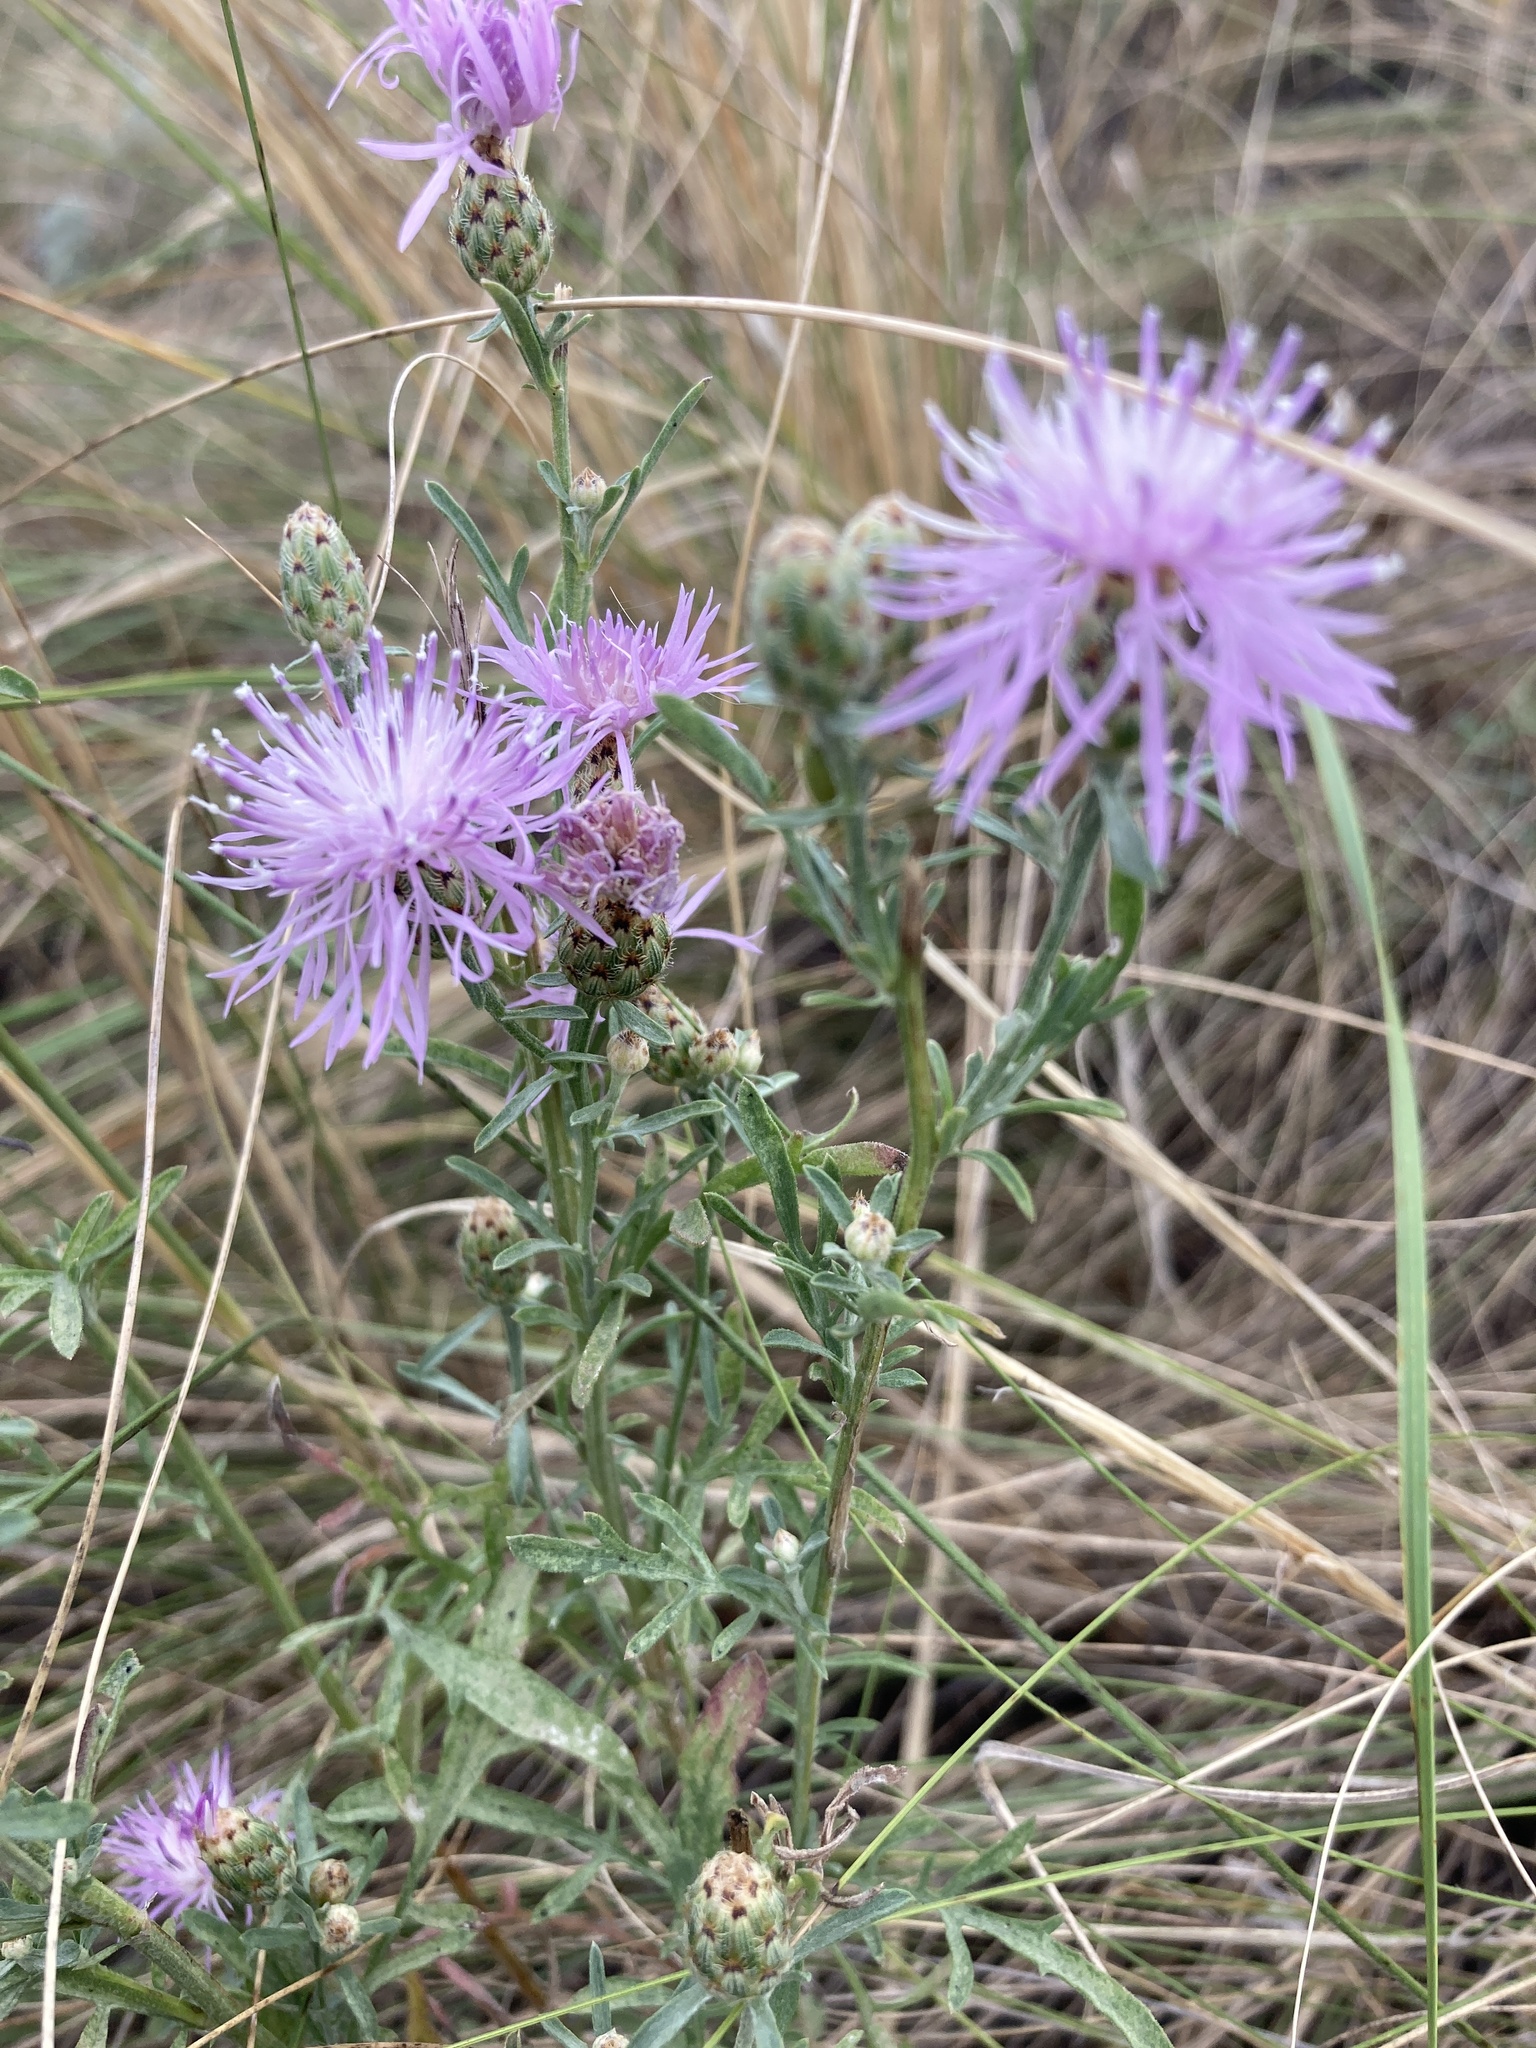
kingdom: Plantae
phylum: Tracheophyta
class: Magnoliopsida
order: Asterales
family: Asteraceae
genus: Centaurea
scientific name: Centaurea stoebe
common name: Spotted knapweed
